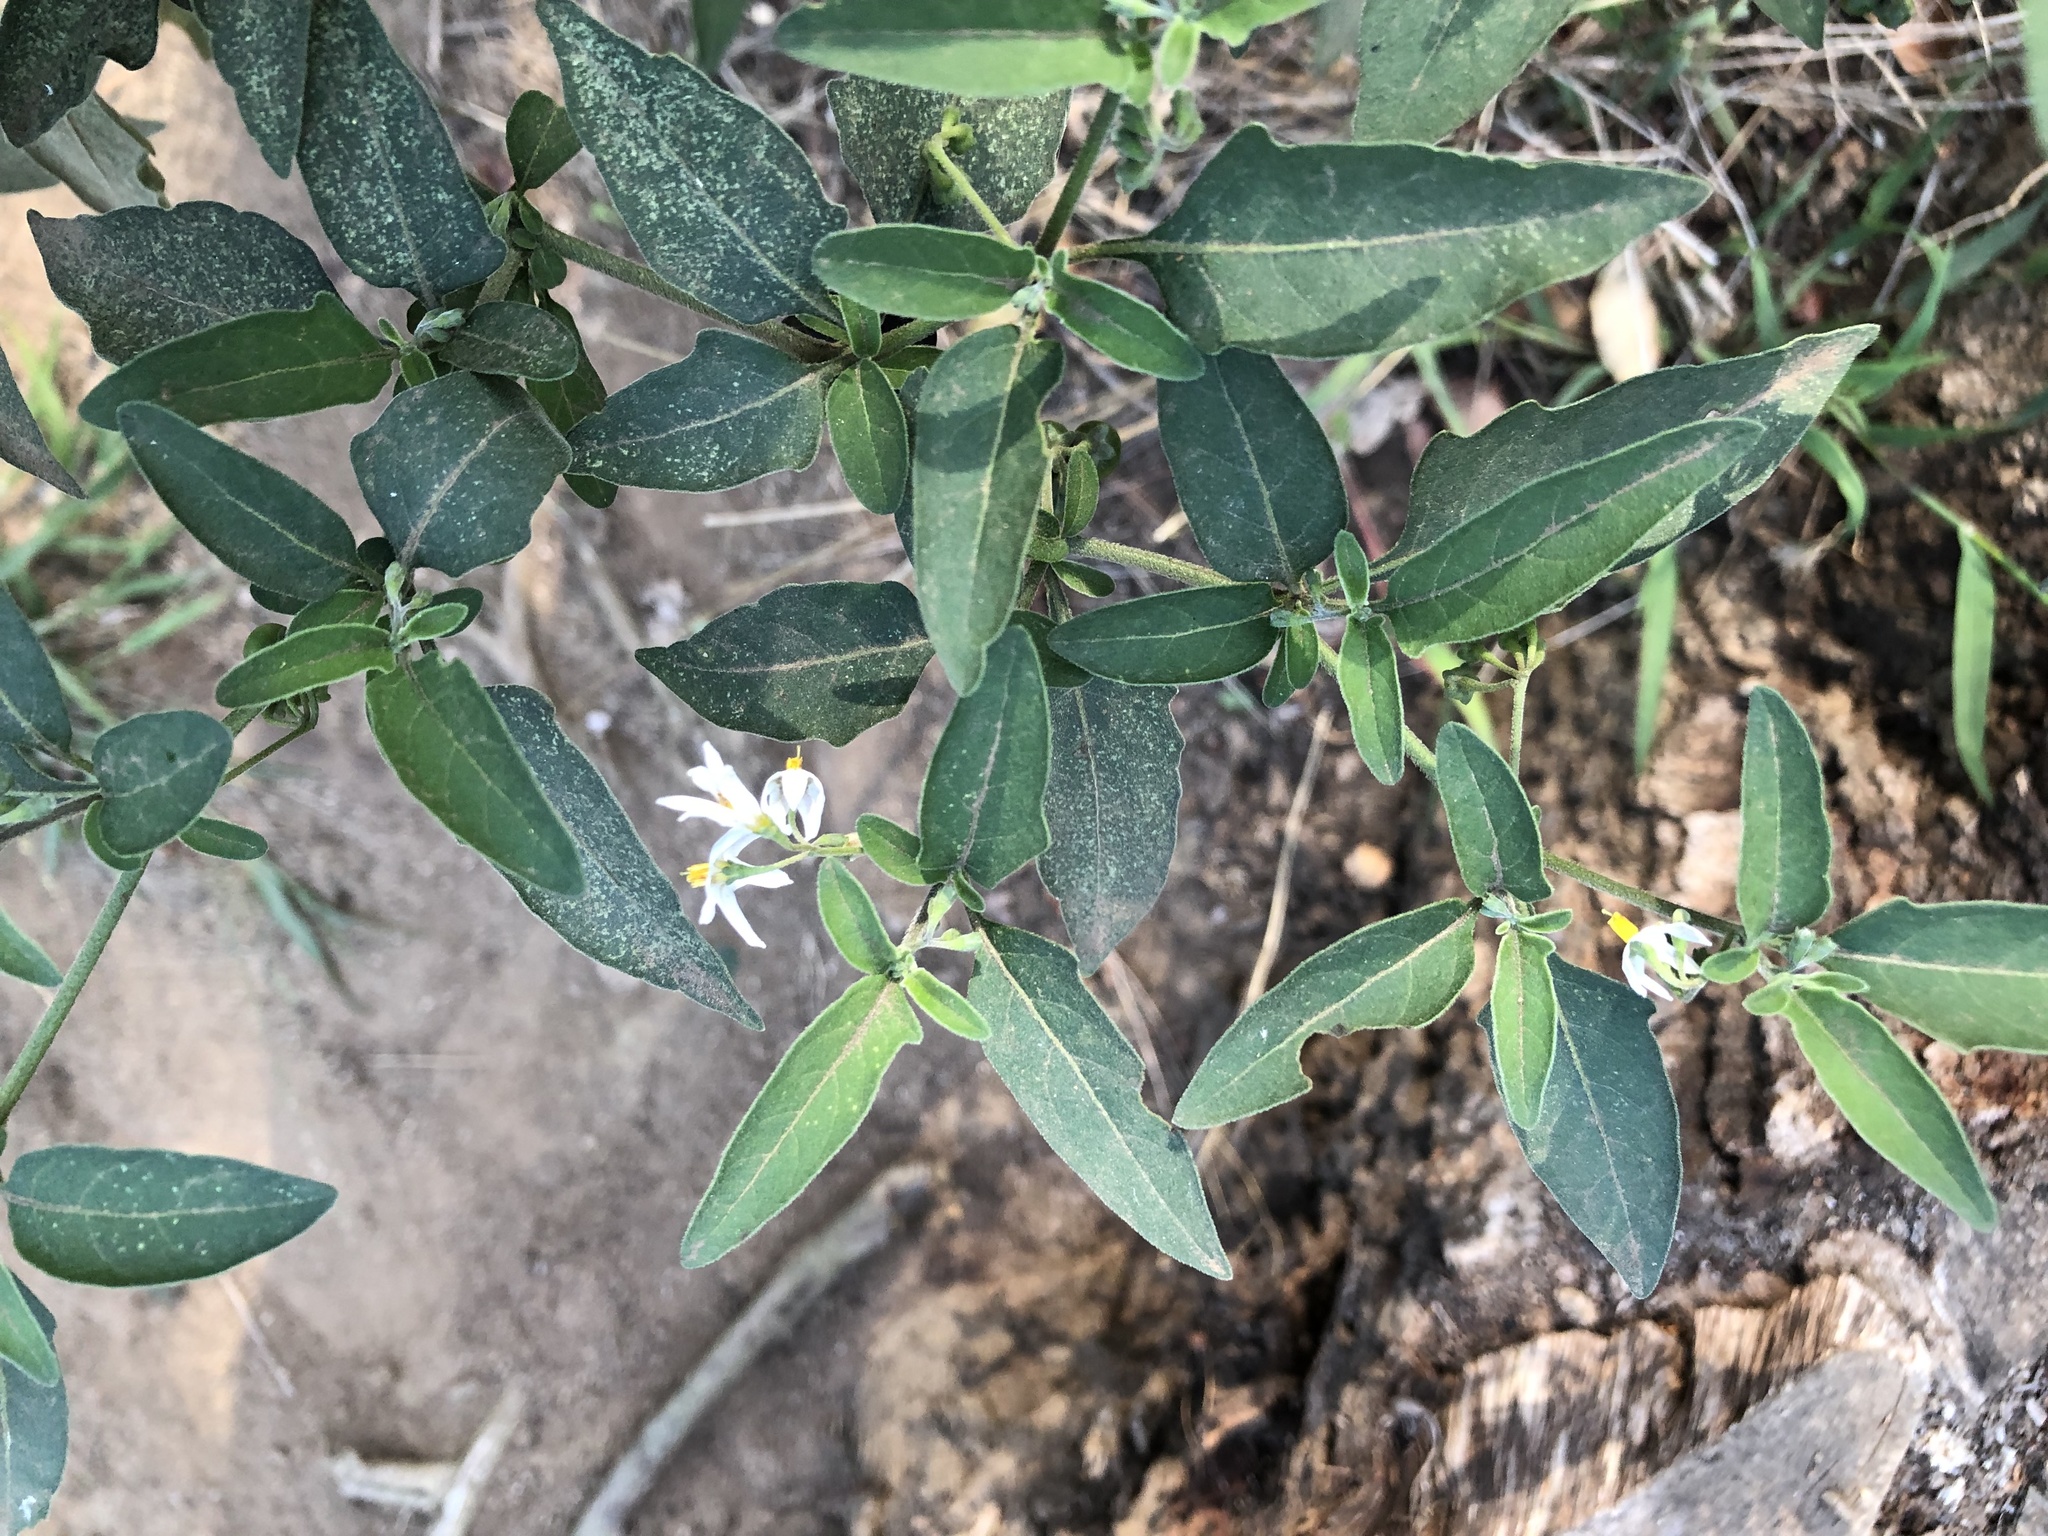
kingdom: Plantae
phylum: Tracheophyta
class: Magnoliopsida
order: Solanales
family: Solanaceae
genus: Solanum
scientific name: Solanum chenopodioides
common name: Tall nightshade
